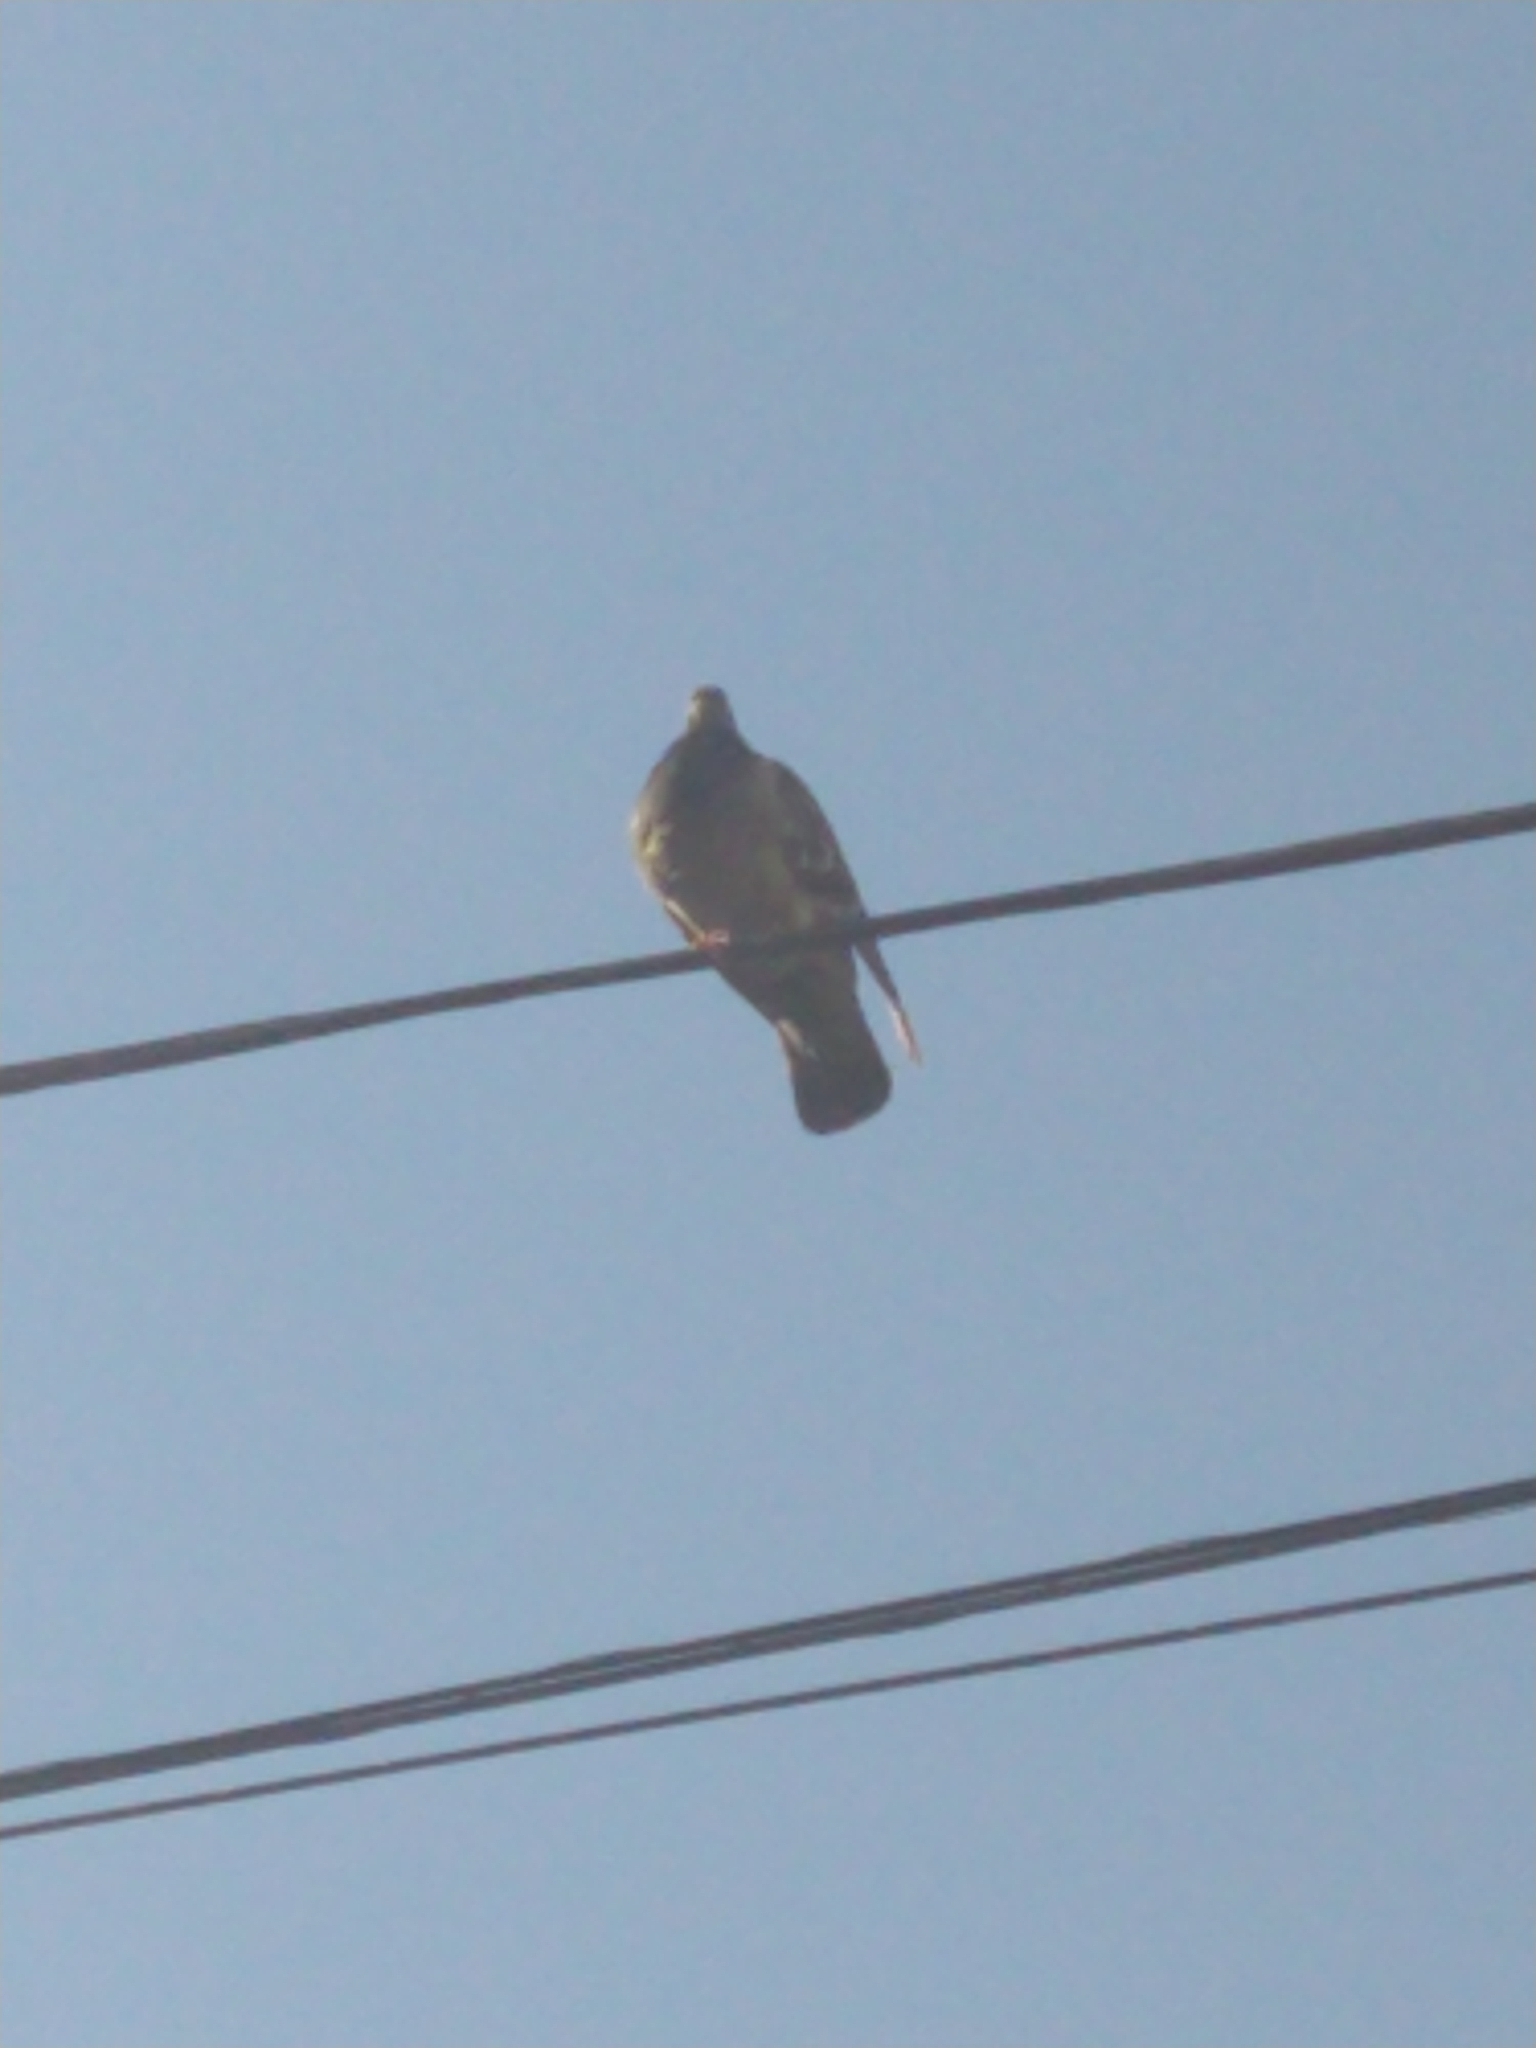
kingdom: Animalia
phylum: Chordata
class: Aves
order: Columbiformes
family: Columbidae
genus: Columba
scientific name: Columba livia
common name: Rock pigeon
